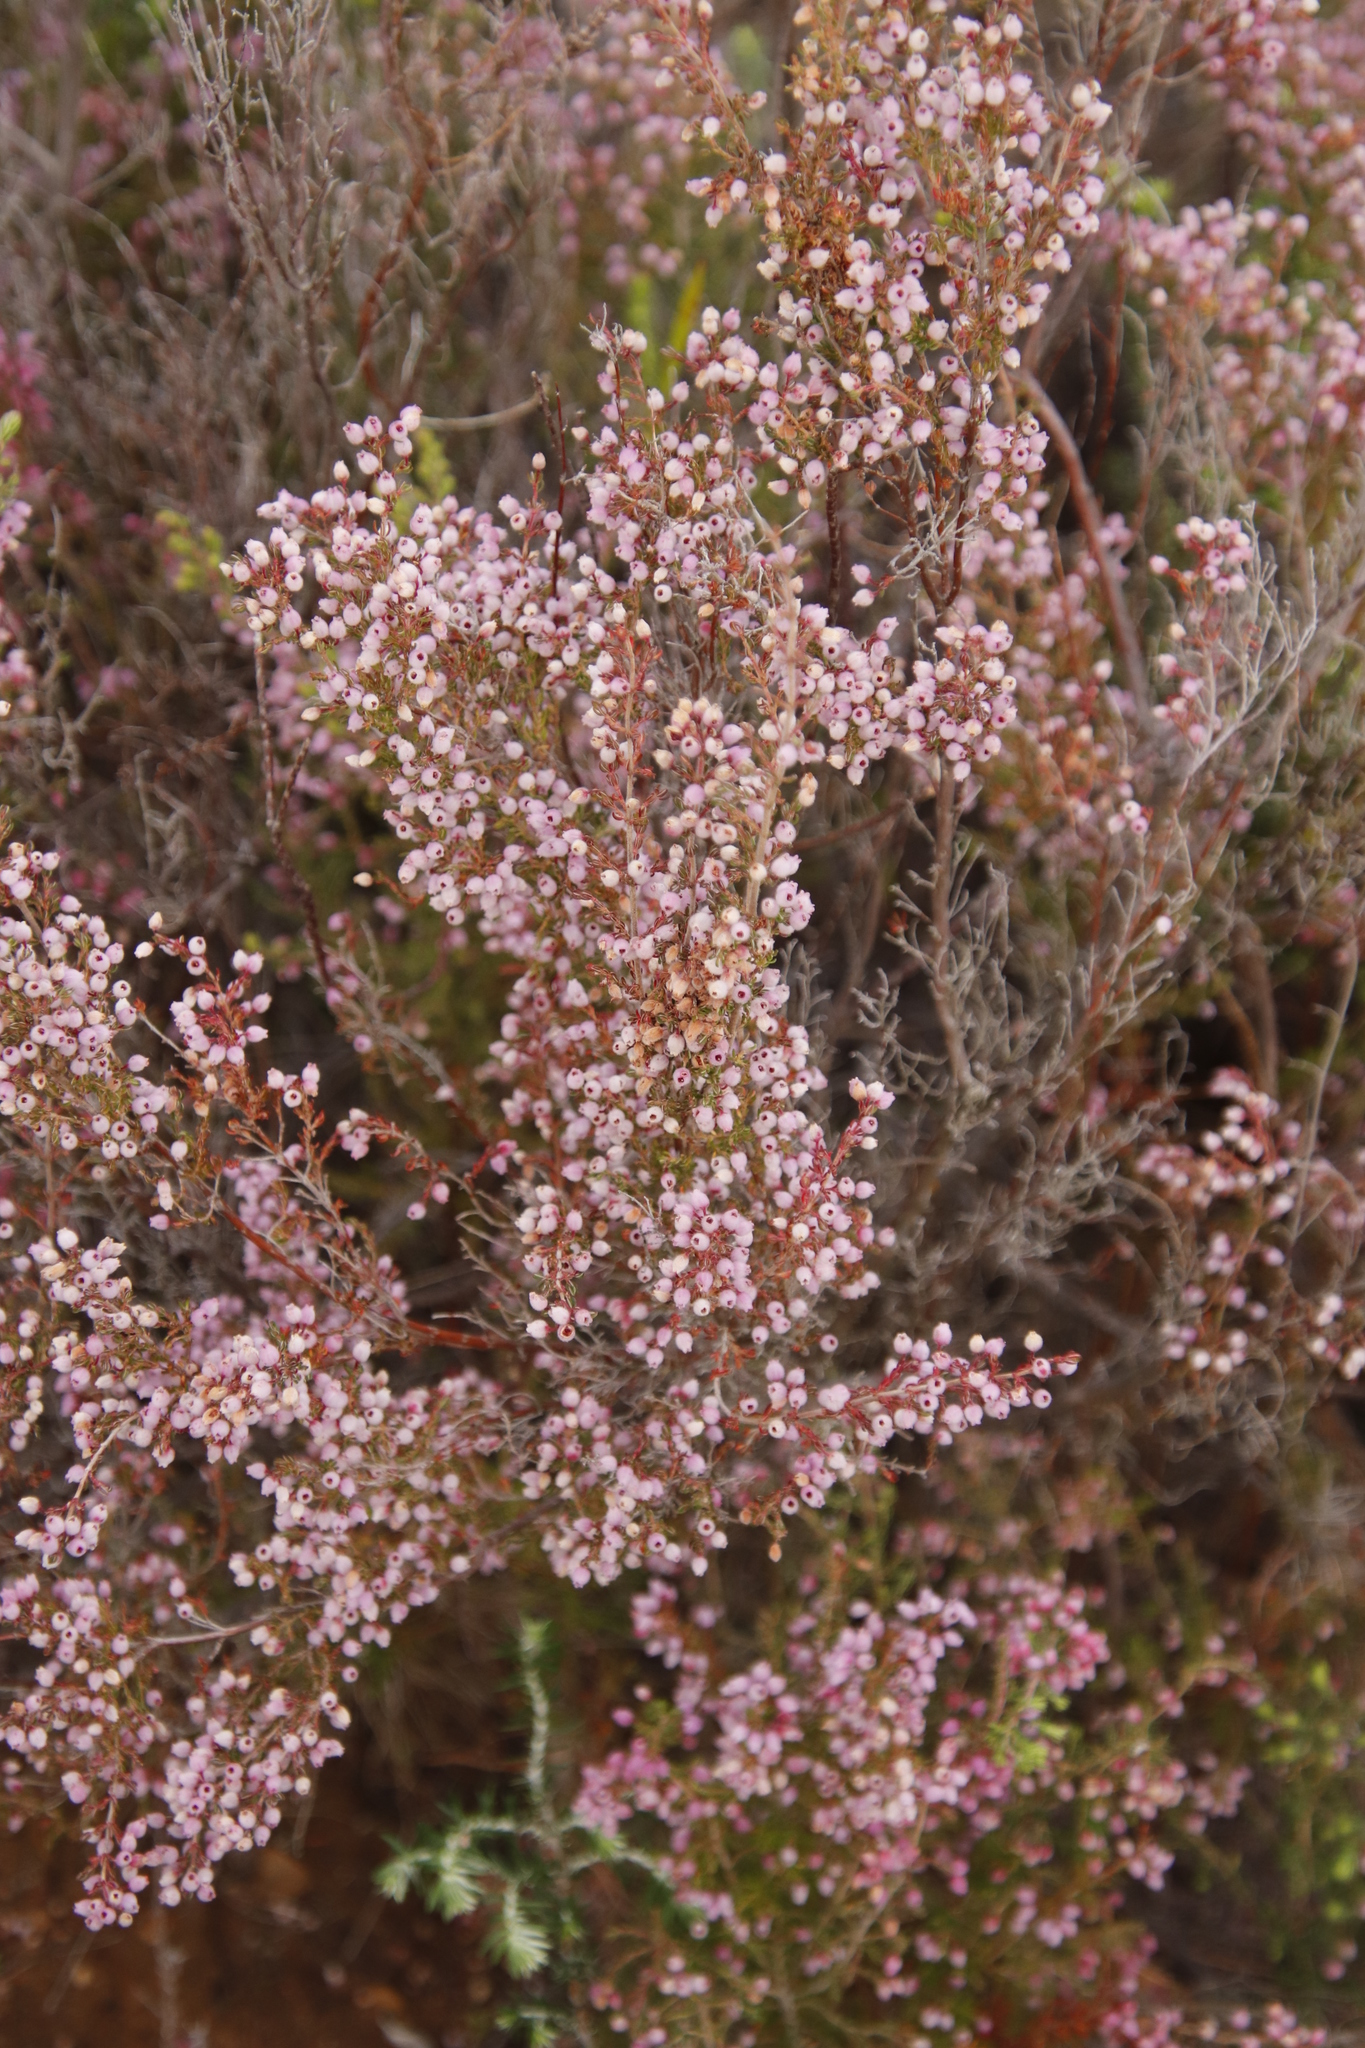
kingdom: Plantae
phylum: Tracheophyta
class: Magnoliopsida
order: Ericales
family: Ericaceae
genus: Erica
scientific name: Erica hirtiflora
